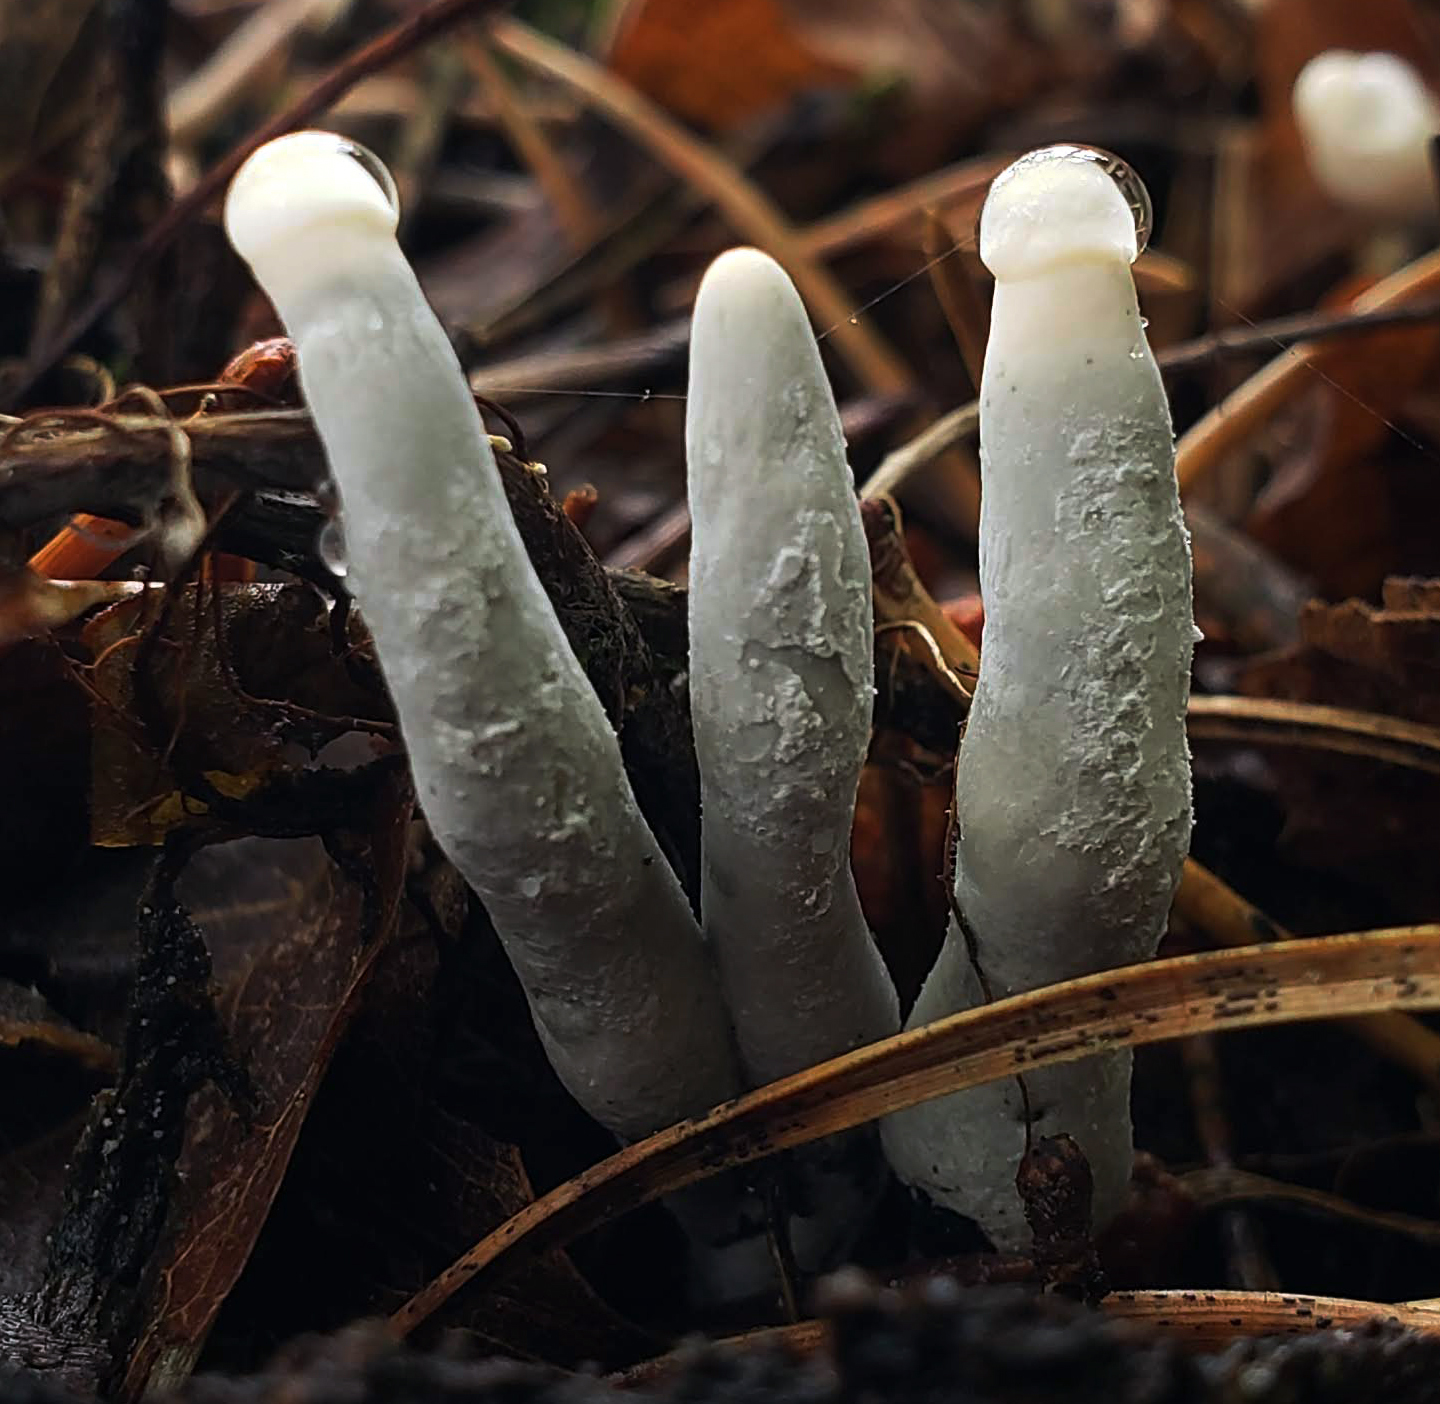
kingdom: Fungi
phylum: Ascomycota
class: Sordariomycetes
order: Xylariales
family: Xylariaceae
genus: Xylaria
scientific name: Xylaria polymorpha
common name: Dead man's fingers
